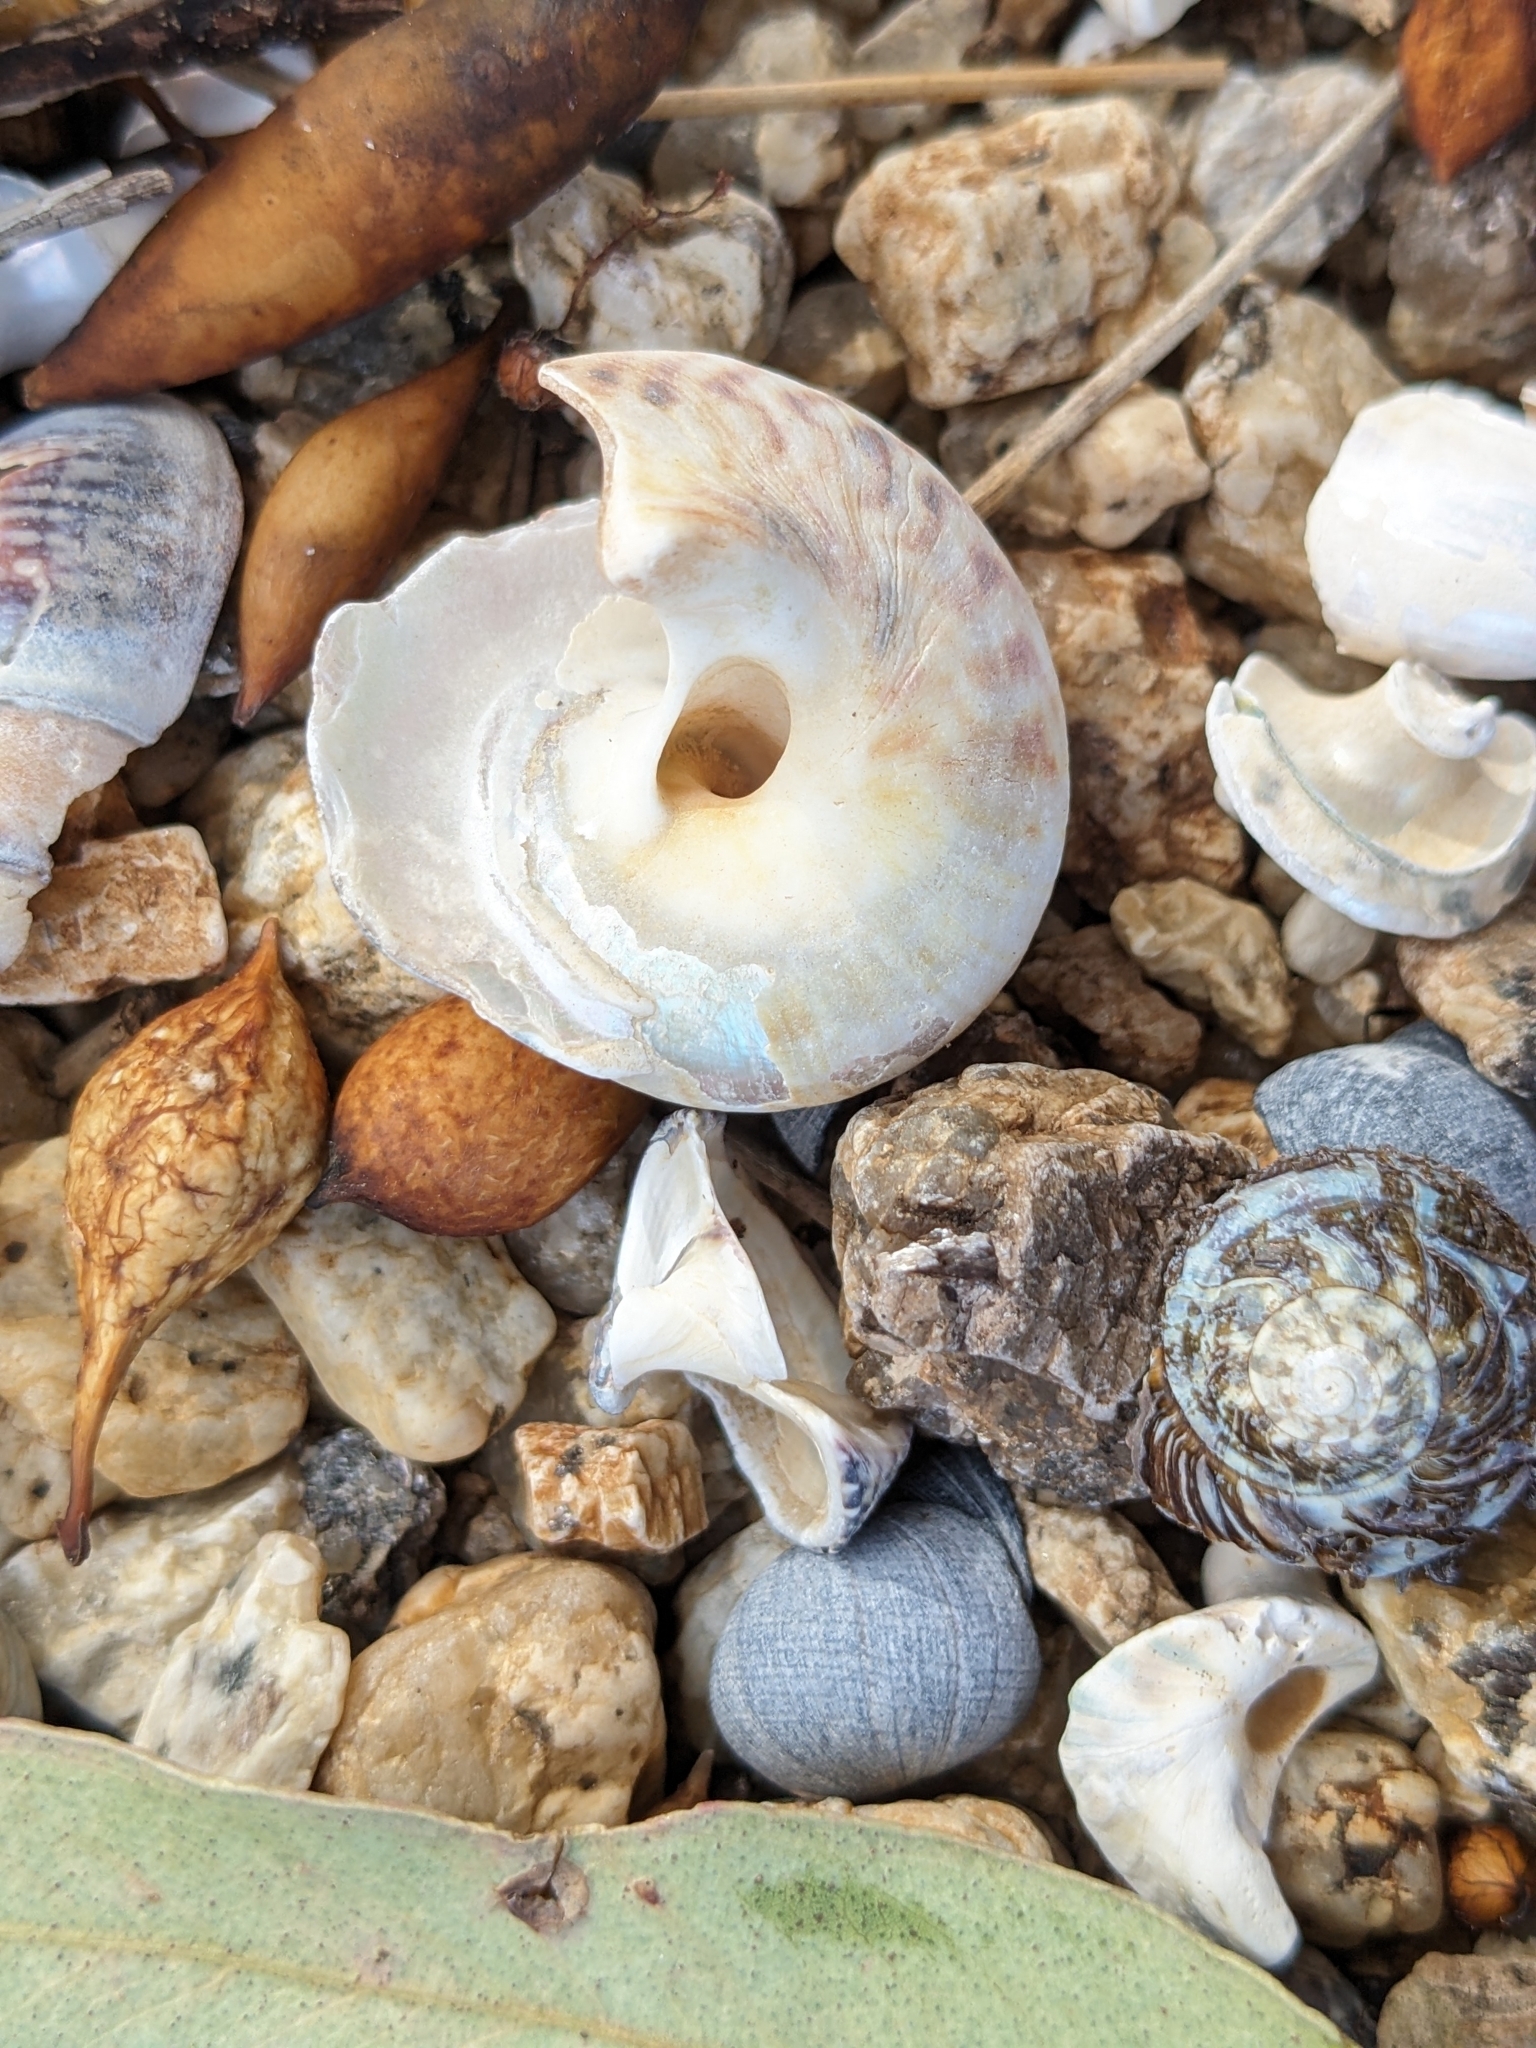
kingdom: Animalia
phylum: Mollusca
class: Gastropoda
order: Trochida
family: Turbinidae
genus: Lunella
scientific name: Lunella undulata
